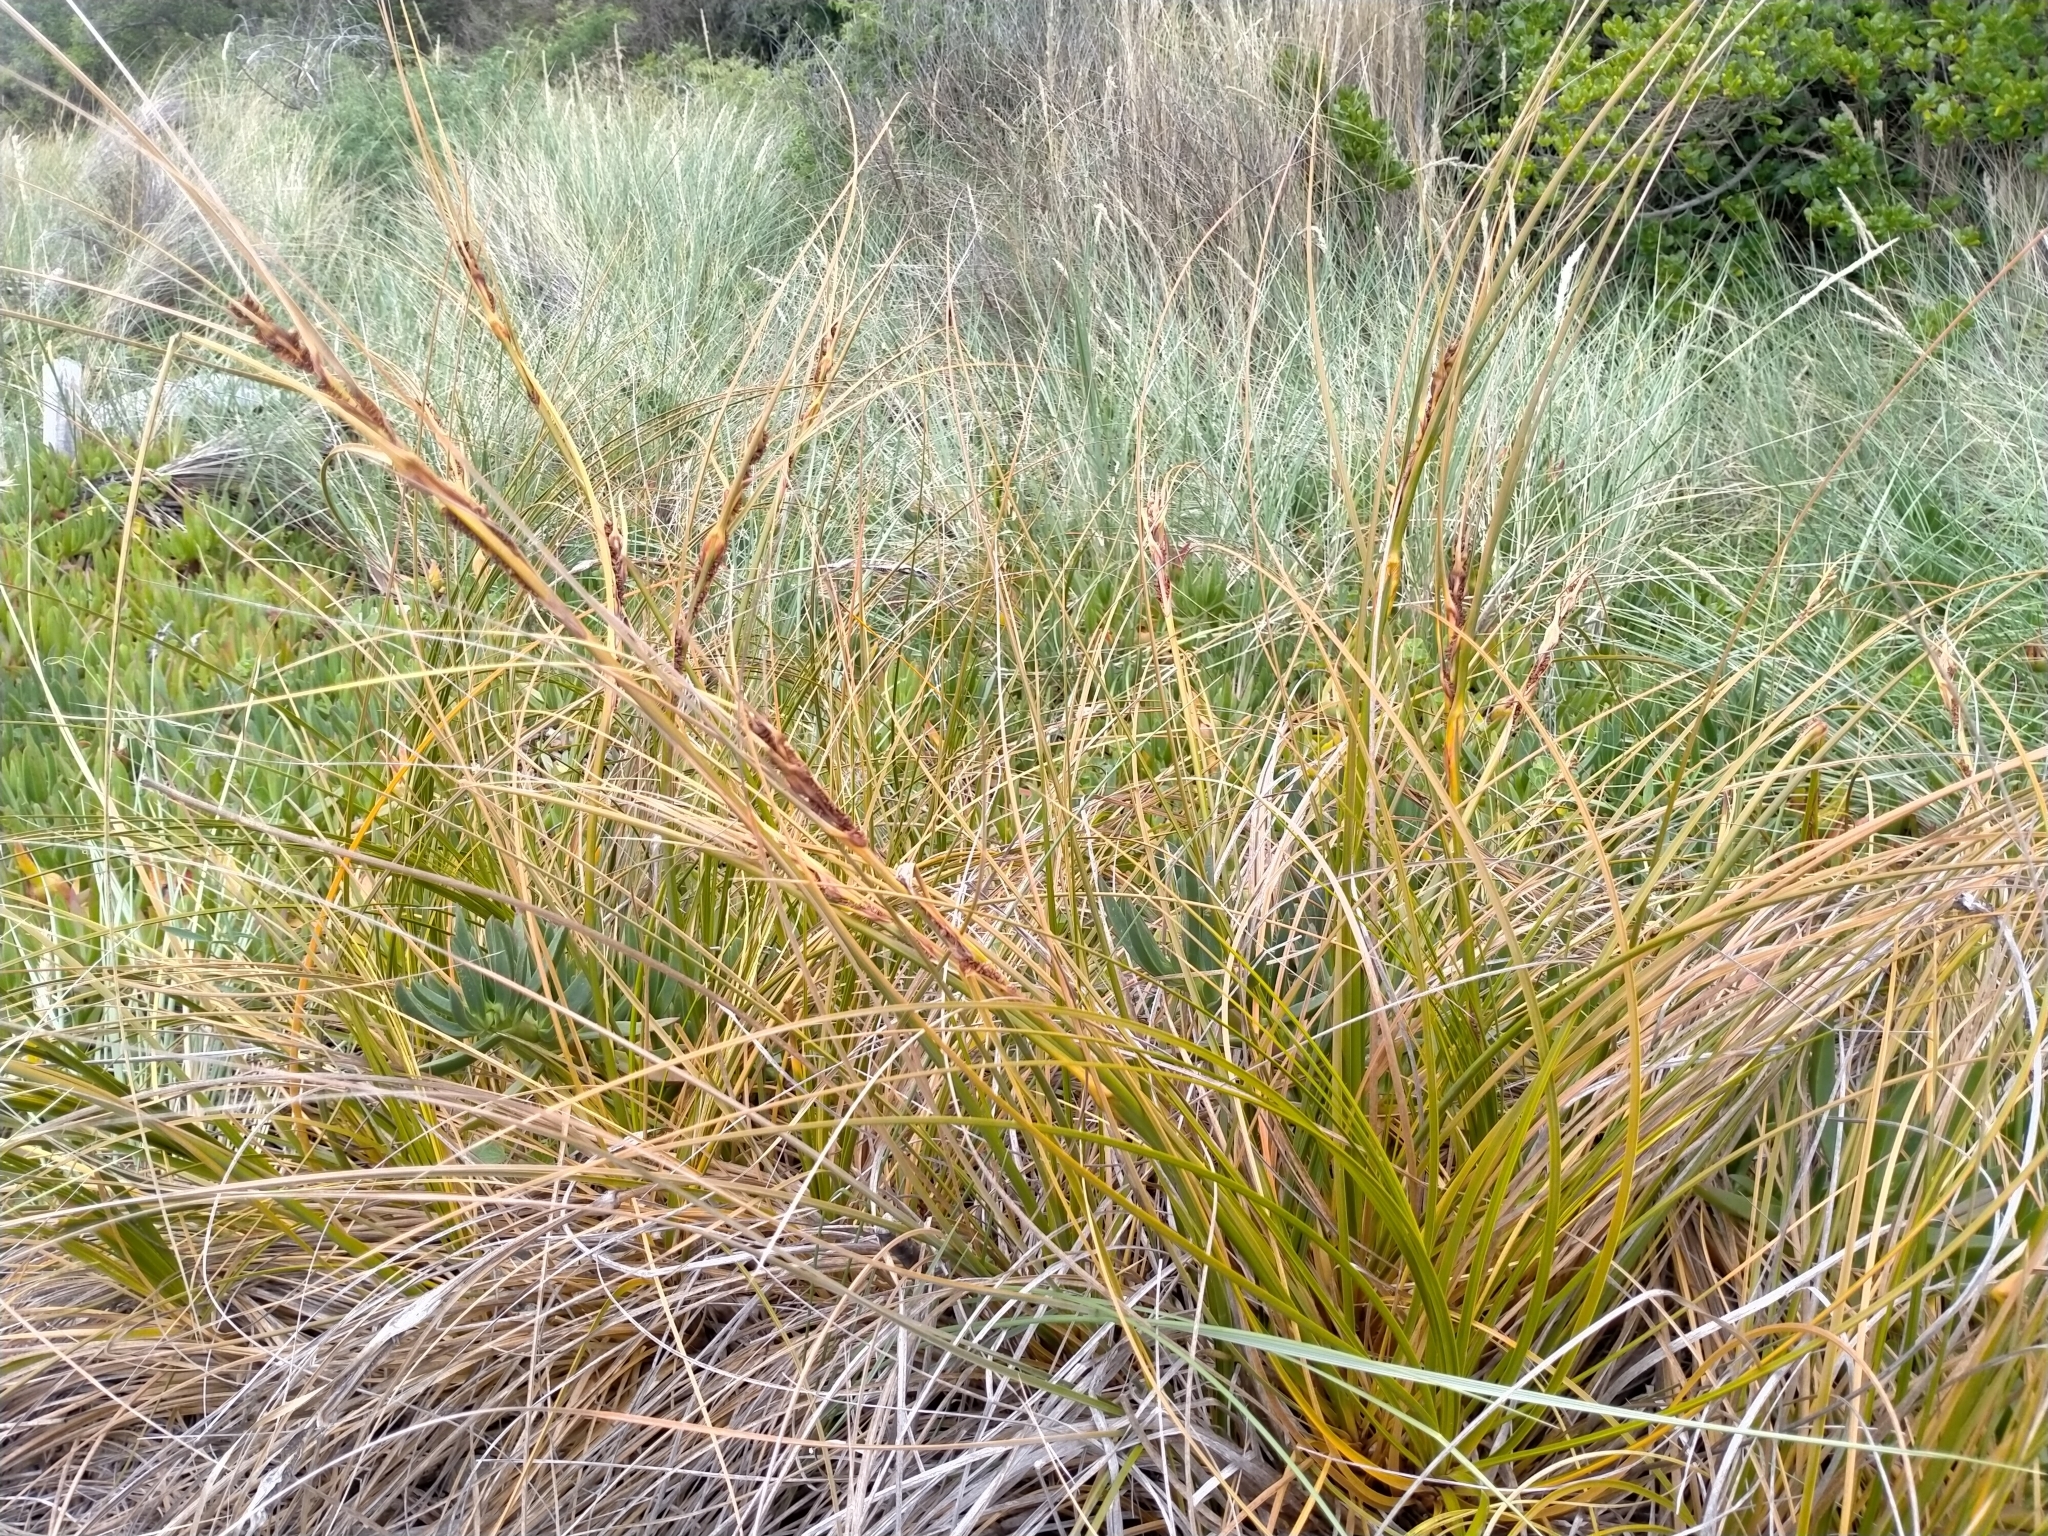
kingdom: Plantae
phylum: Tracheophyta
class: Liliopsida
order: Poales
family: Cyperaceae
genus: Ficinia
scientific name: Ficinia spiralis
